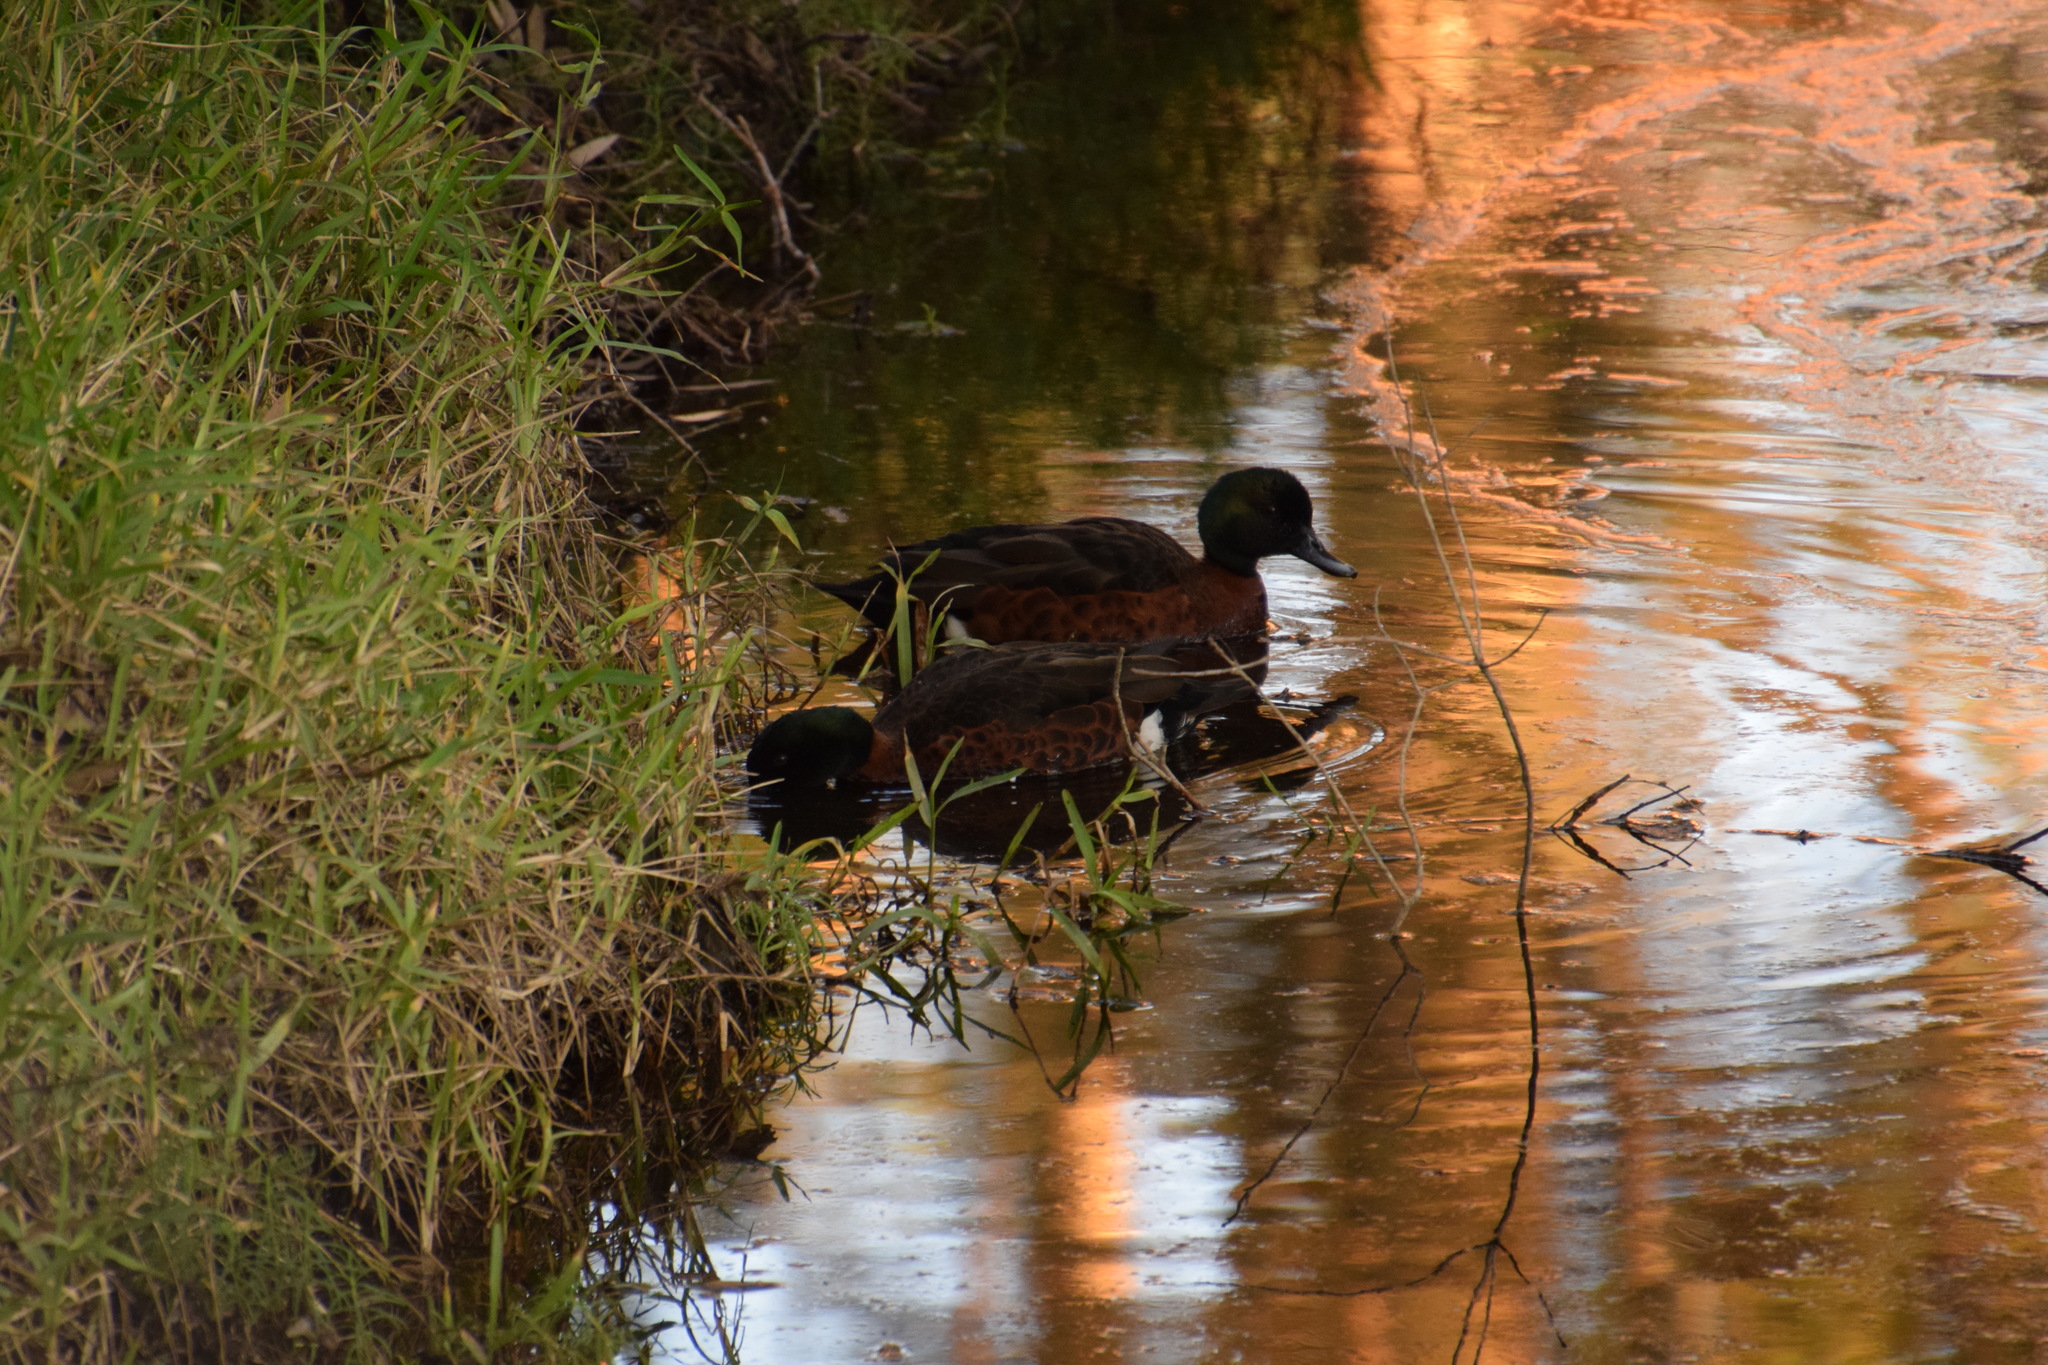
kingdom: Animalia
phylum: Chordata
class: Aves
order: Anseriformes
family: Anatidae
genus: Anas
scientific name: Anas castanea
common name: Chestnut teal
